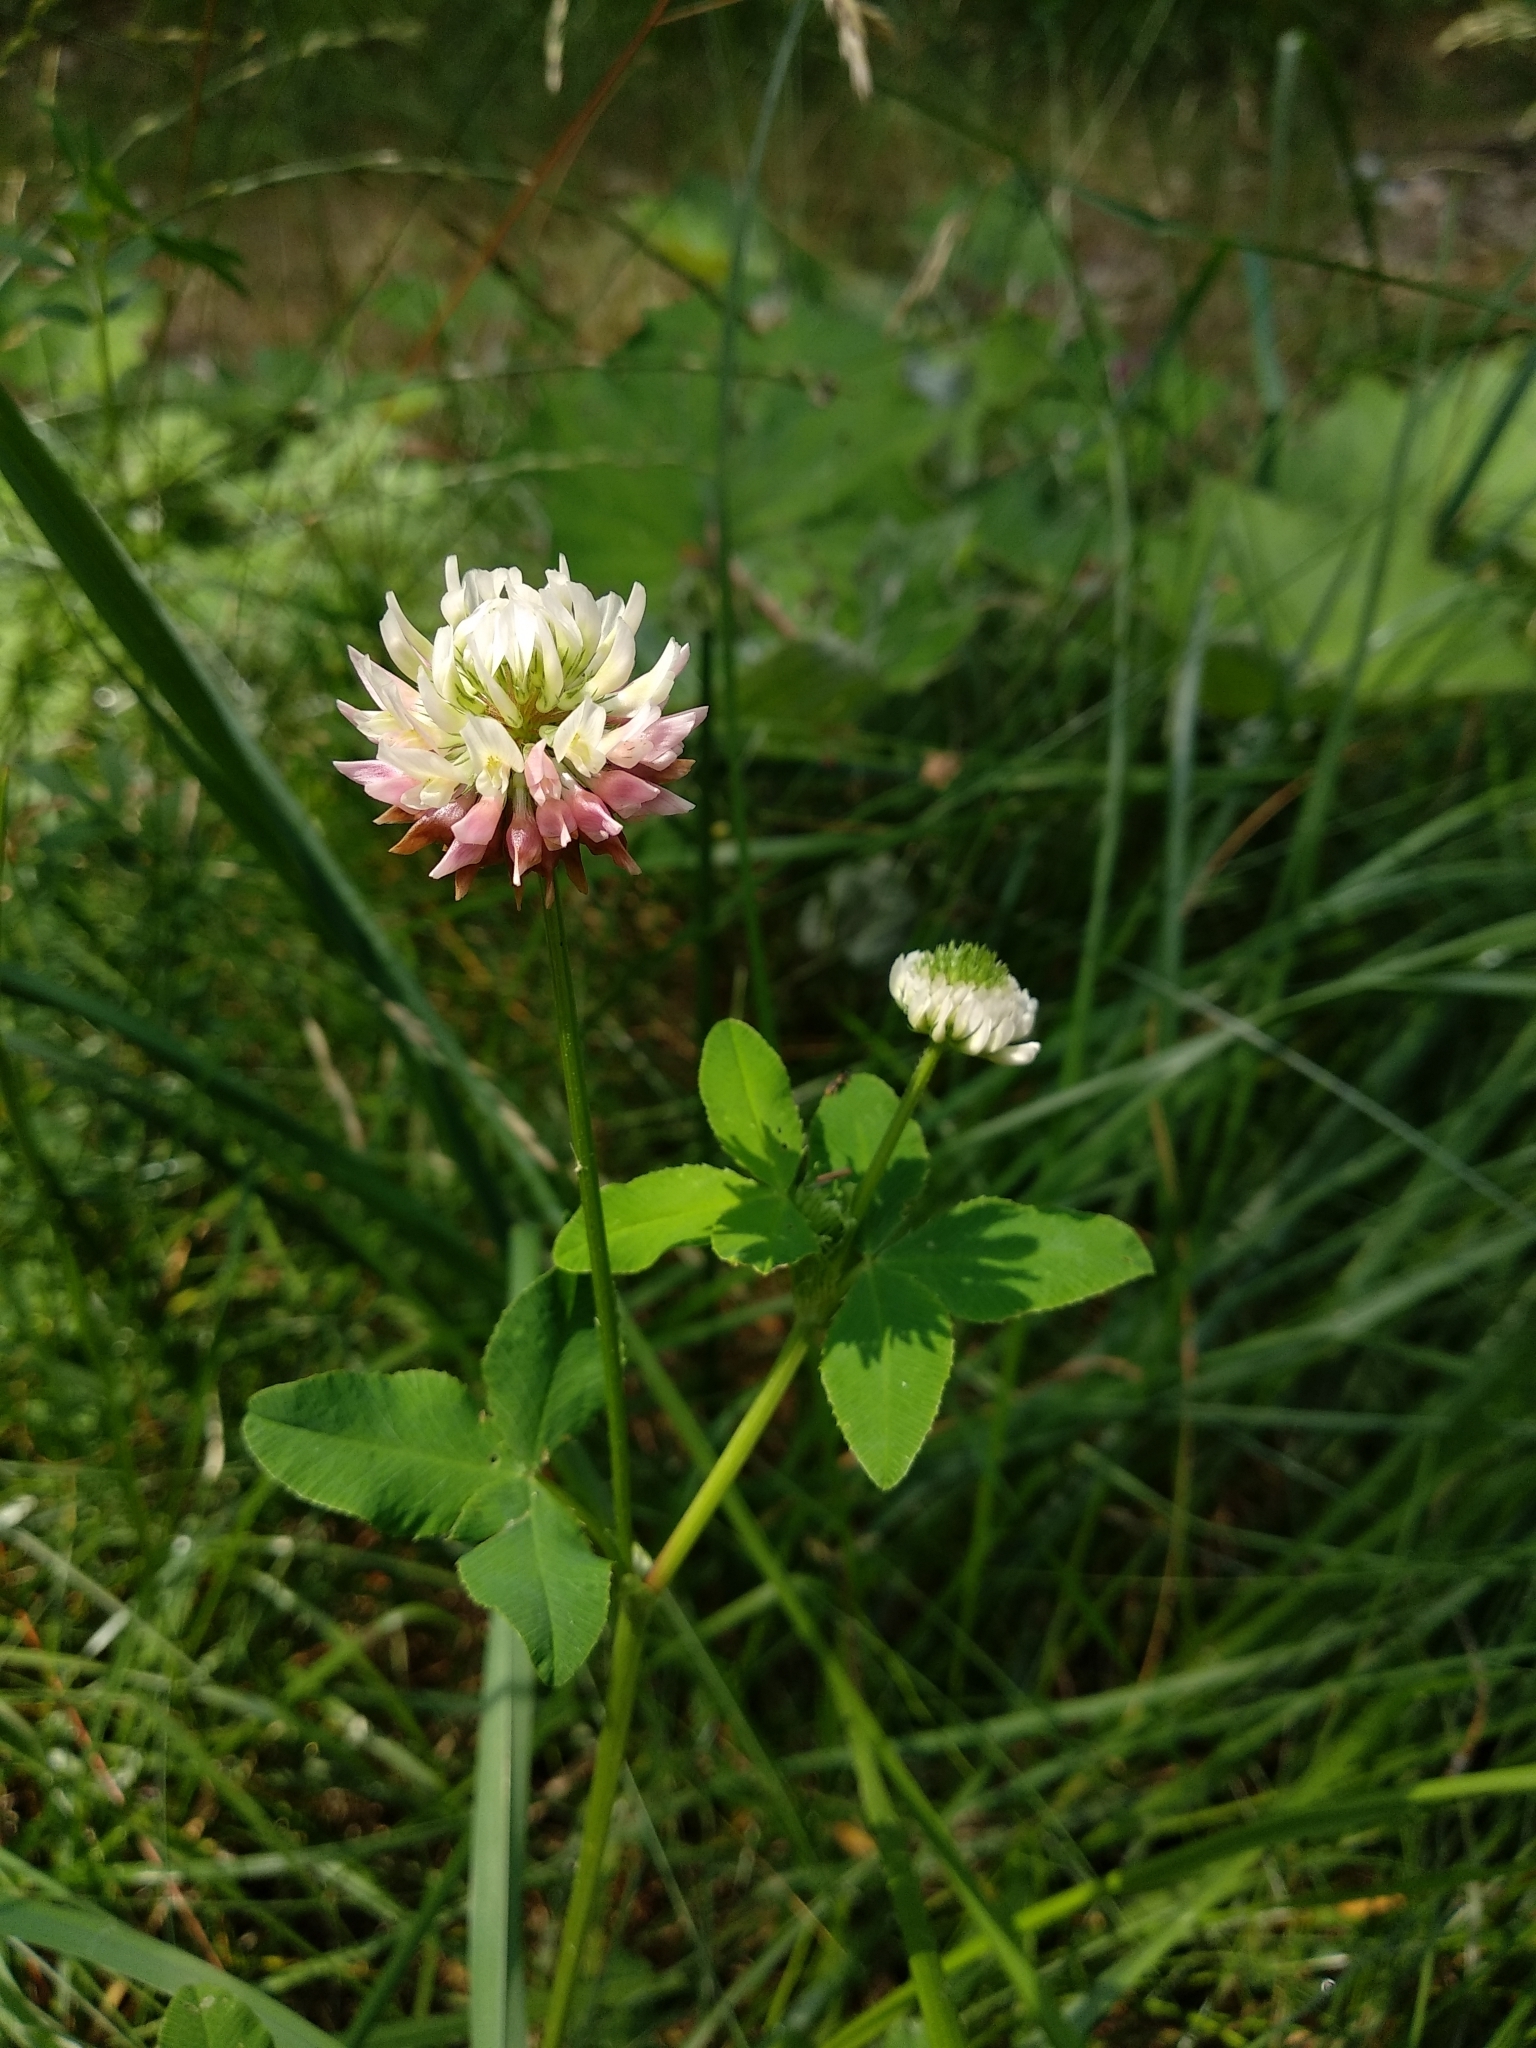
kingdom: Plantae
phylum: Tracheophyta
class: Magnoliopsida
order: Fabales
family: Fabaceae
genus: Trifolium
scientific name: Trifolium hybridum
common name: Alsike clover
